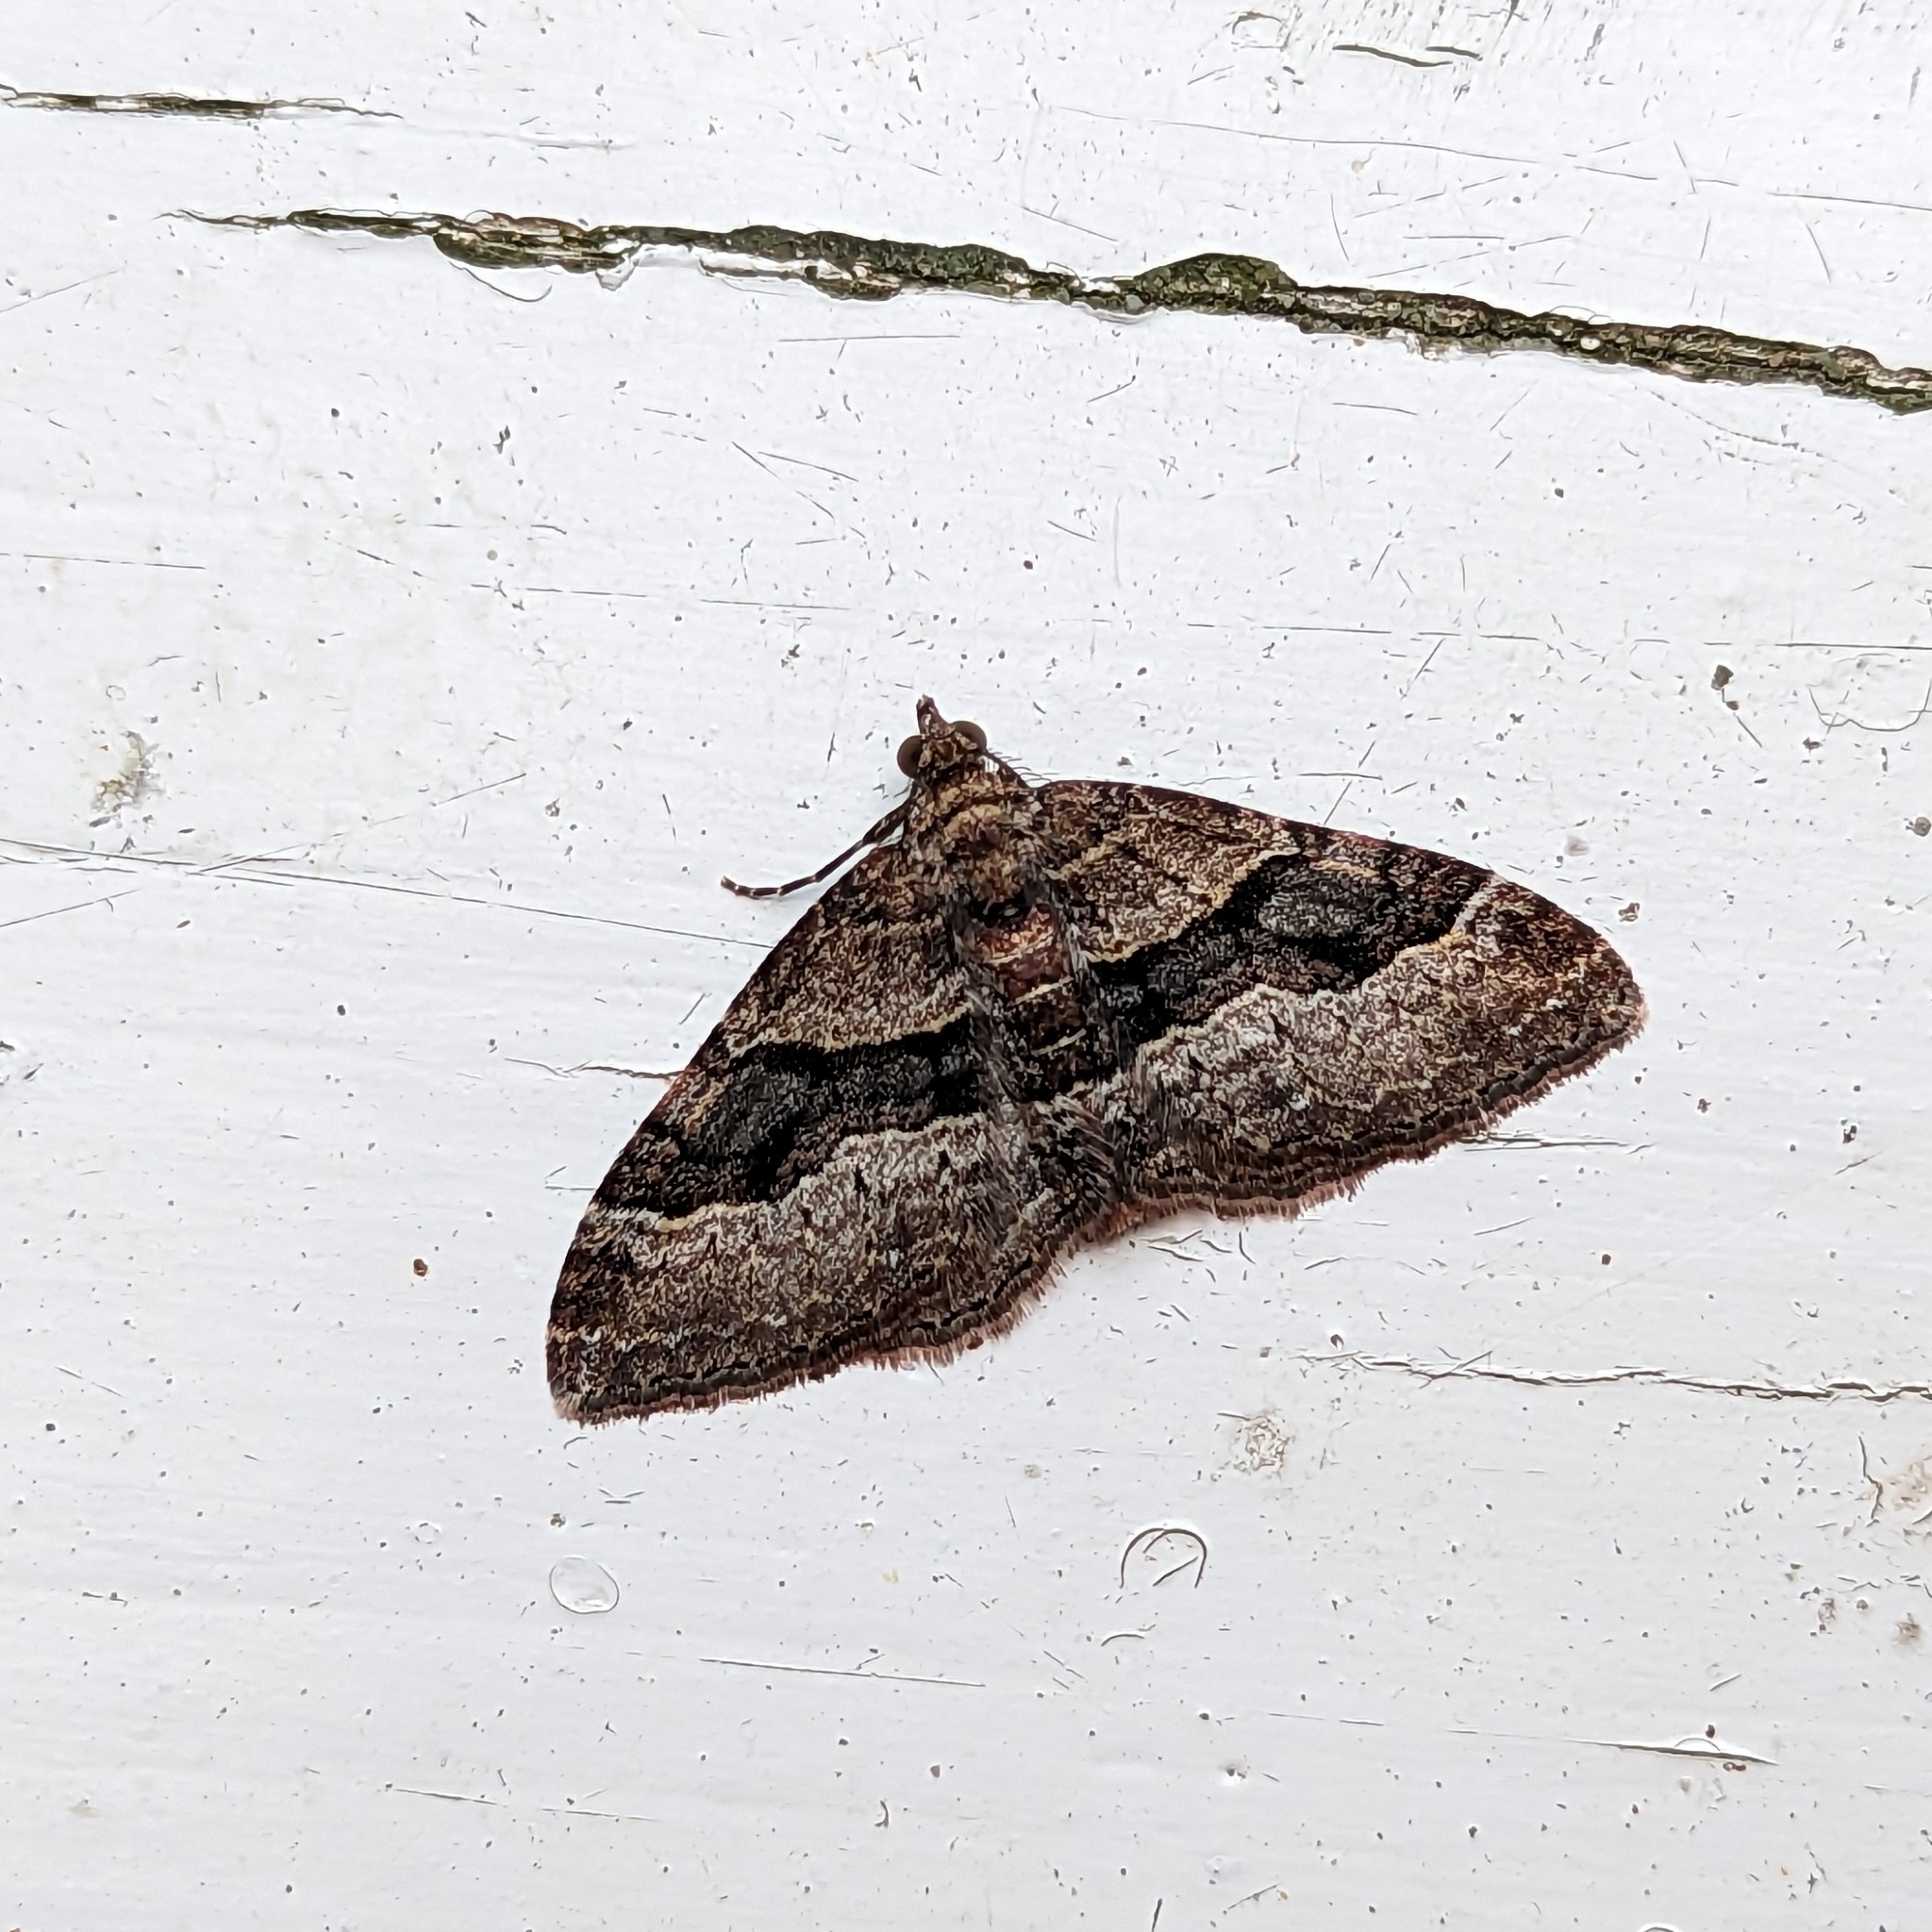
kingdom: Animalia
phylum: Arthropoda
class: Insecta
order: Lepidoptera
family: Geometridae
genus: Epyaxa
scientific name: Epyaxa lucidata
